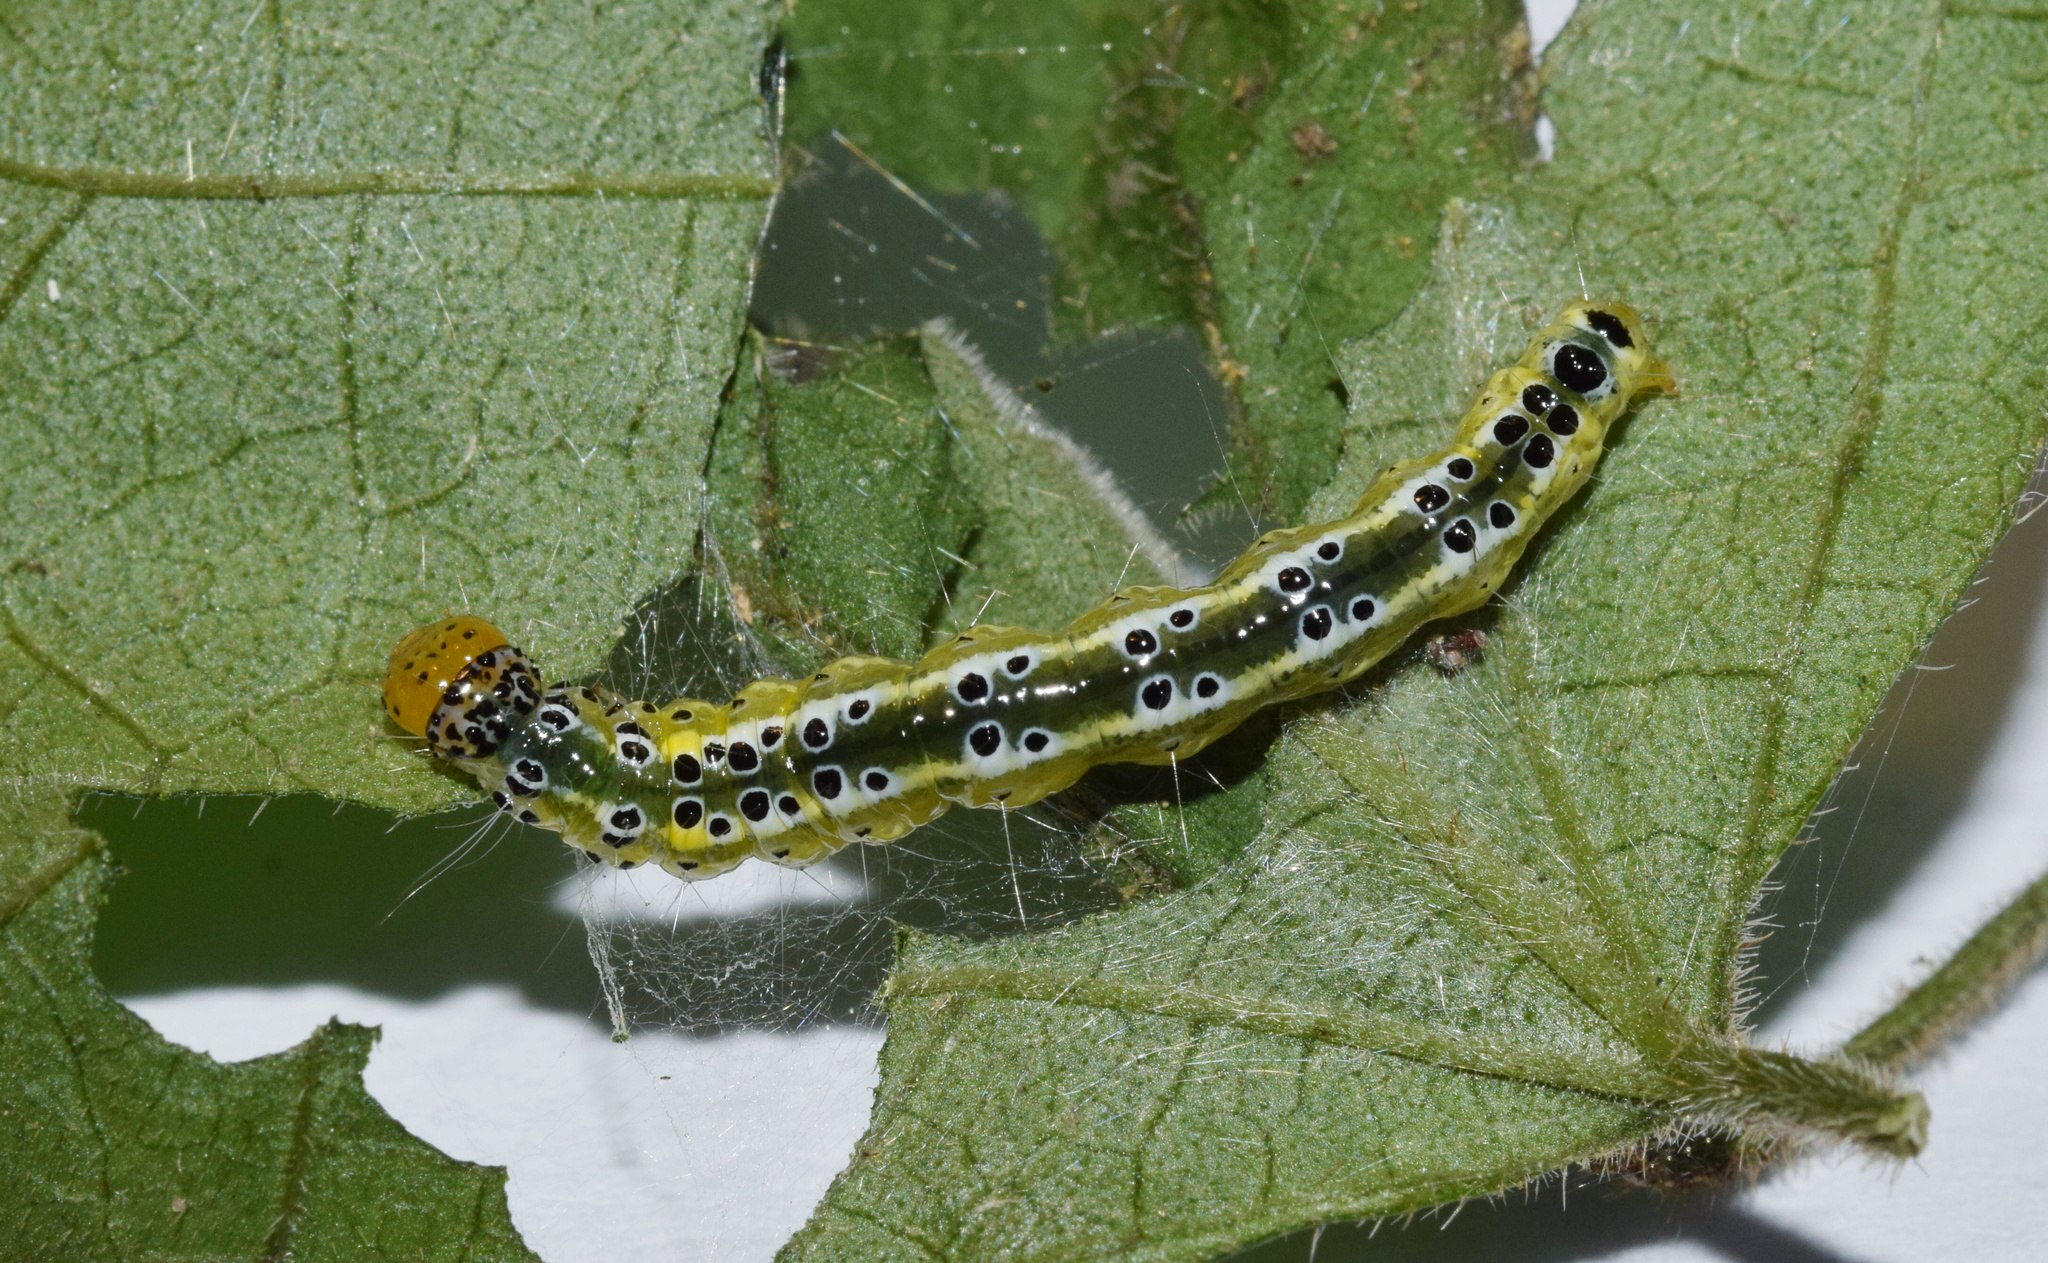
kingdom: Animalia
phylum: Arthropoda
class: Insecta
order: Lepidoptera
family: Crambidae
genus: Syllepte
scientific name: Syllepte glebalis
